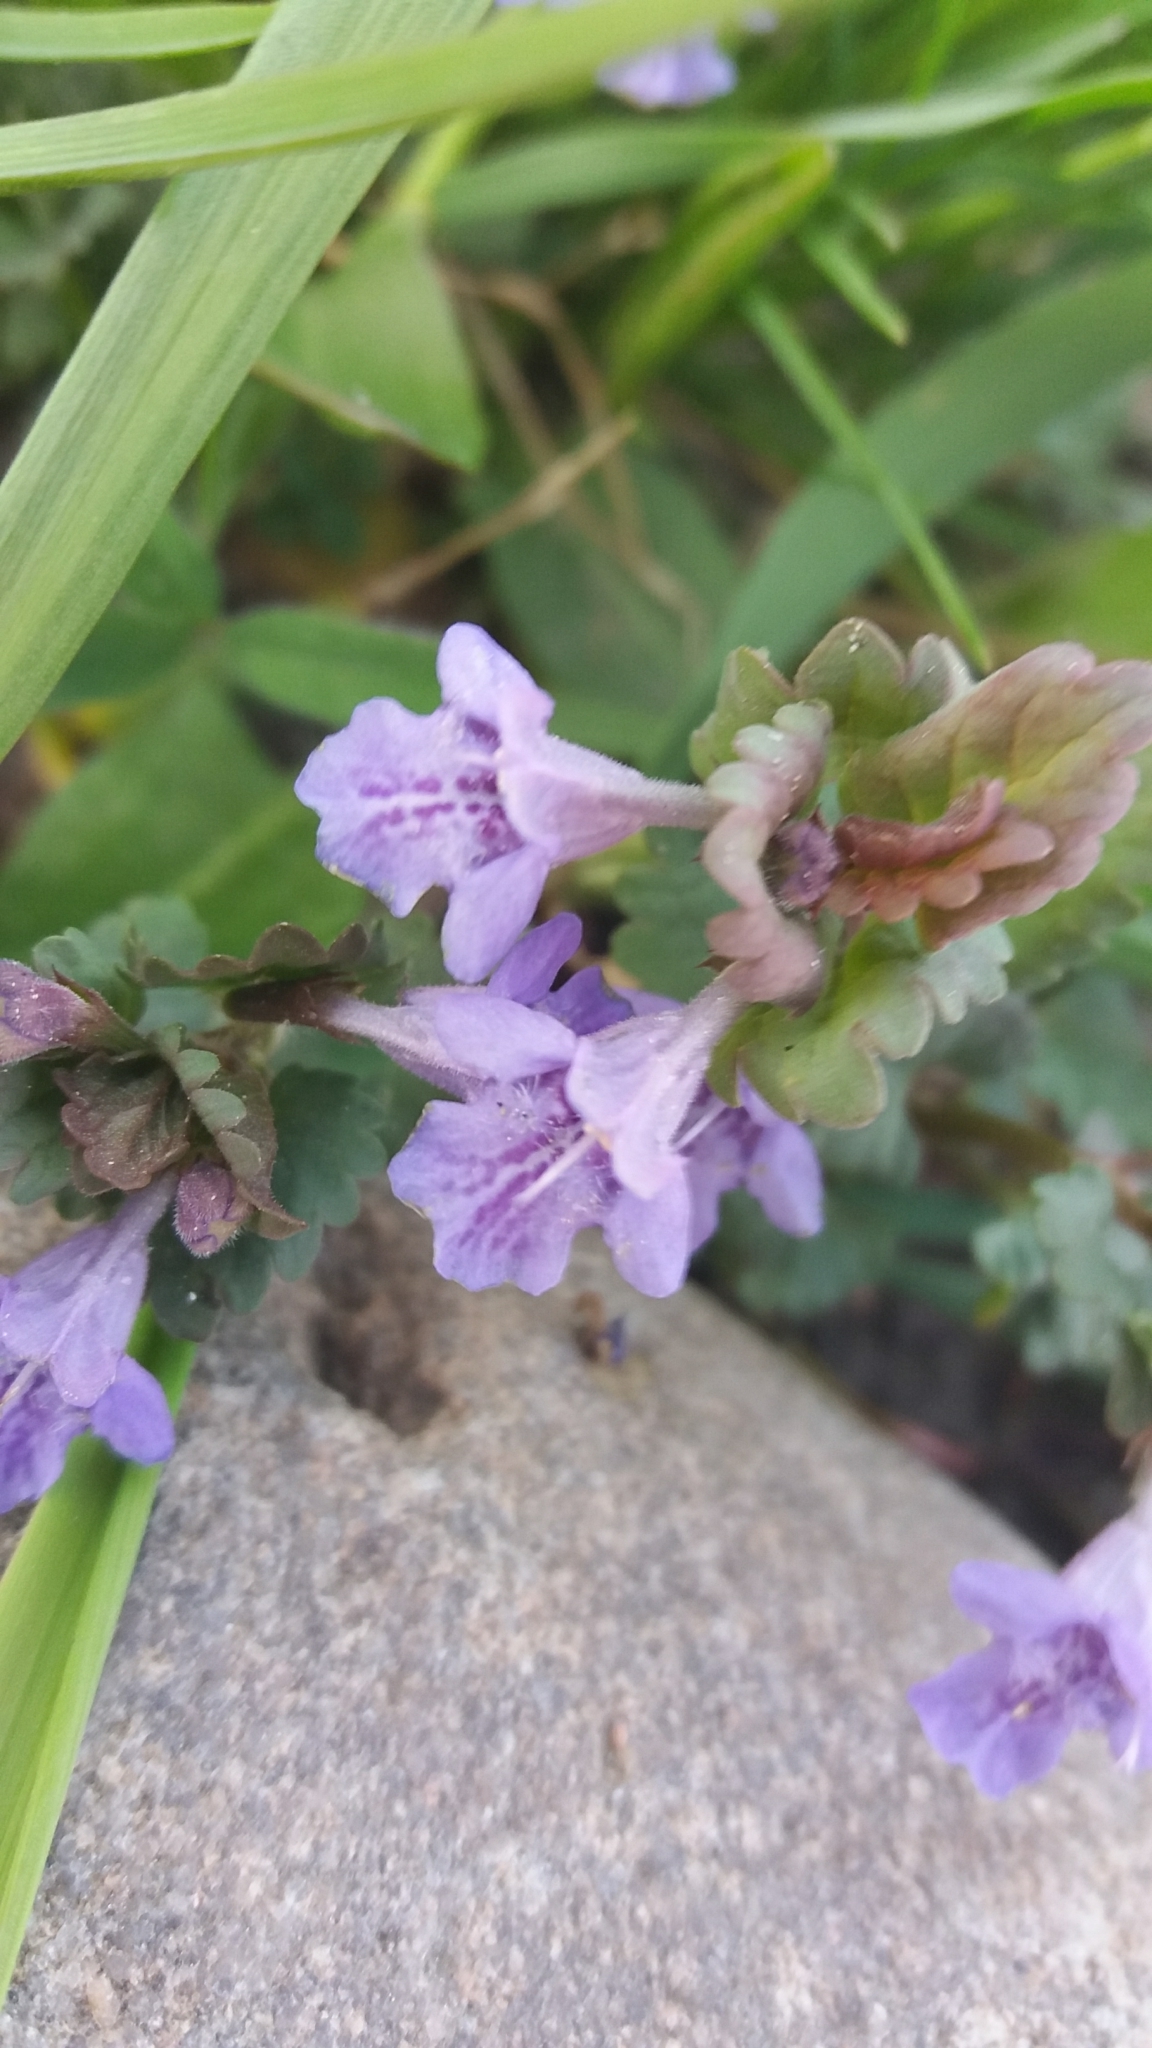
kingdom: Plantae
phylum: Tracheophyta
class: Magnoliopsida
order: Lamiales
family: Lamiaceae
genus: Glechoma
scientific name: Glechoma hederacea
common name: Ground ivy
